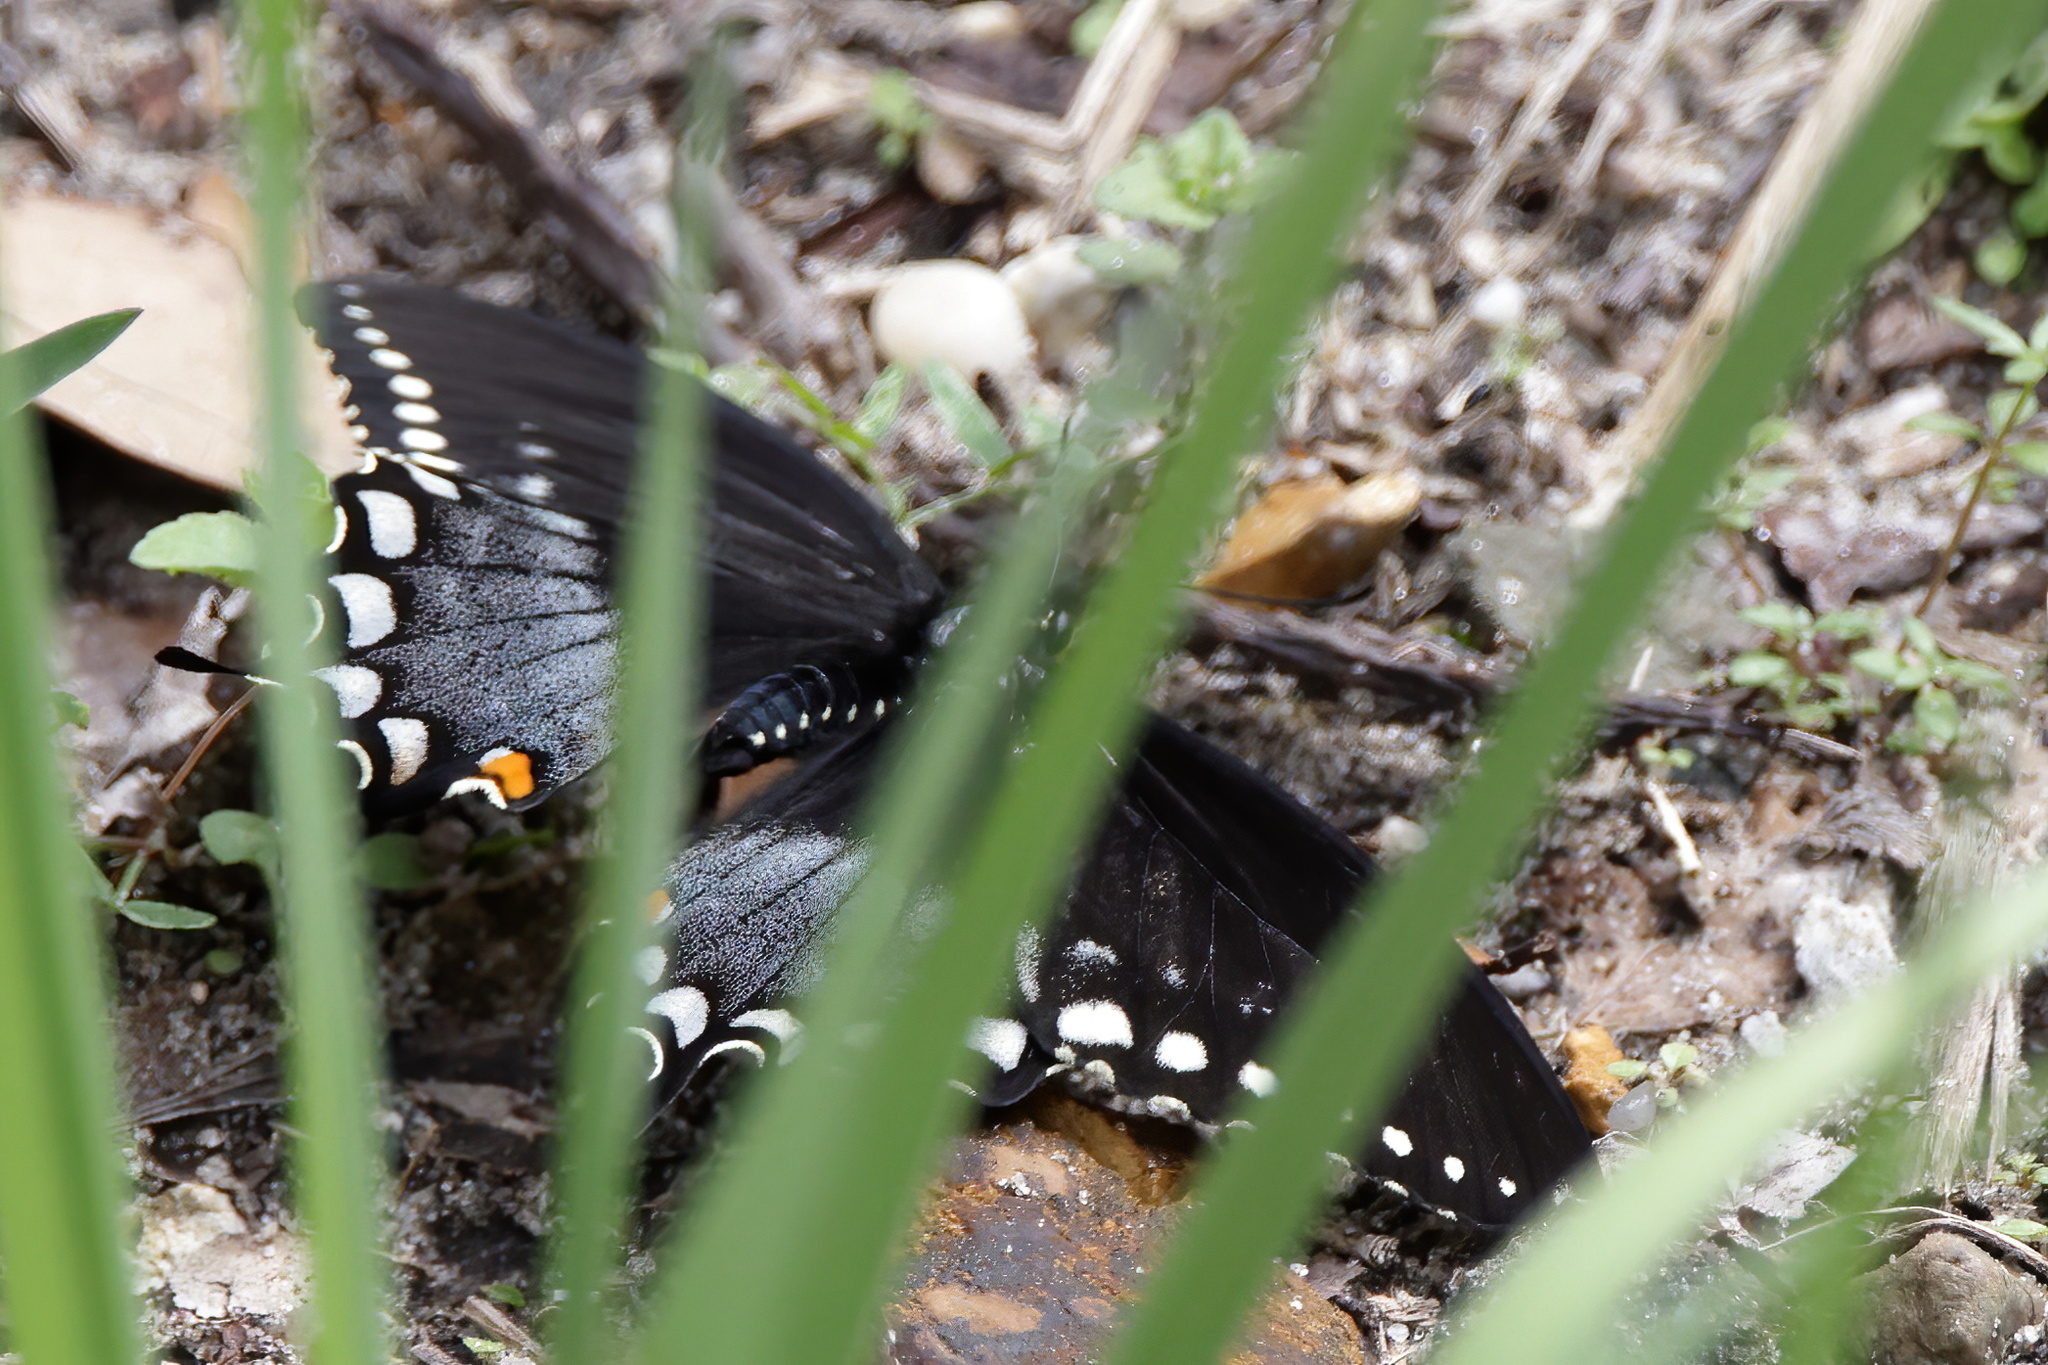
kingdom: Animalia
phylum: Arthropoda
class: Insecta
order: Lepidoptera
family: Papilionidae
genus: Papilio
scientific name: Papilio troilus
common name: Spicebush swallowtail
